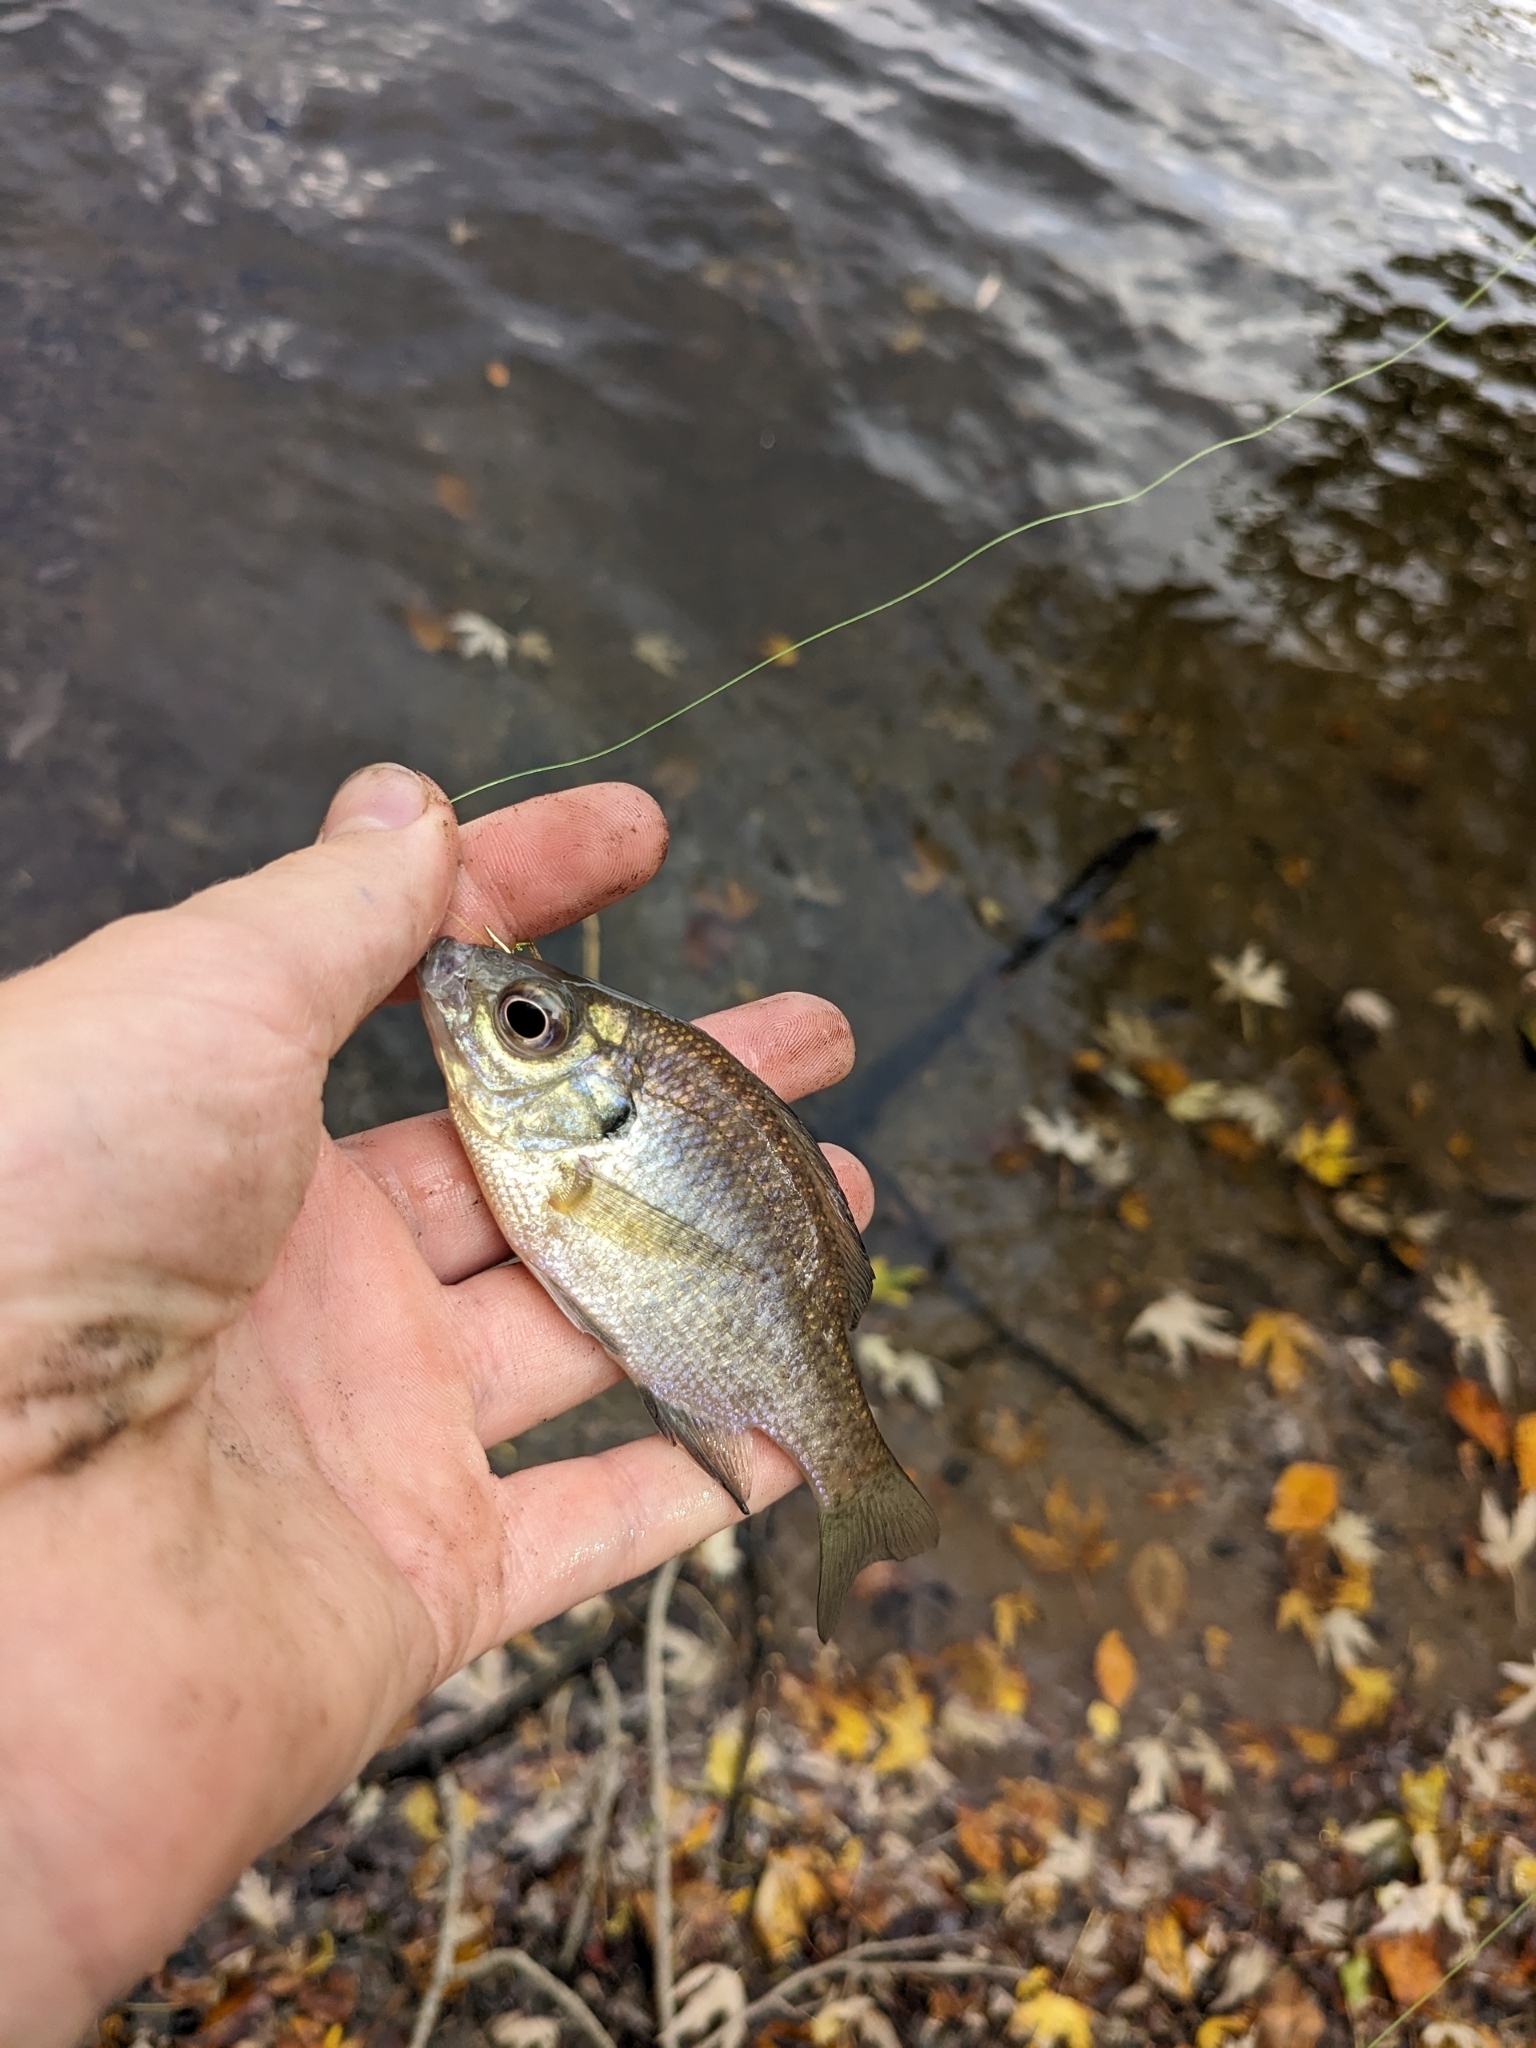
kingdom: Animalia
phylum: Chordata
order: Perciformes
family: Centrarchidae
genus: Lepomis
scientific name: Lepomis macrochirus
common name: Bluegill
